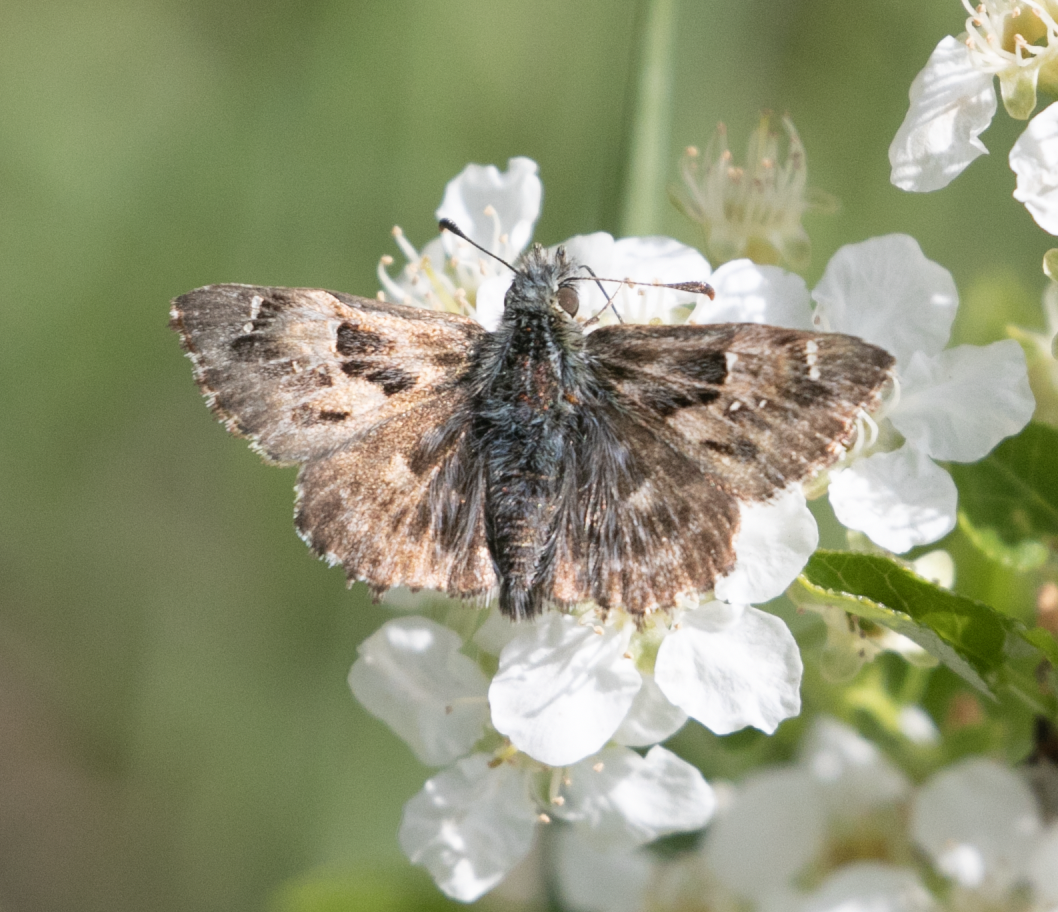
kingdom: Animalia
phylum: Arthropoda
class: Insecta
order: Lepidoptera
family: Hesperiidae
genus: Carcharodus
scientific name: Carcharodus alceae
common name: Mallow skipper
